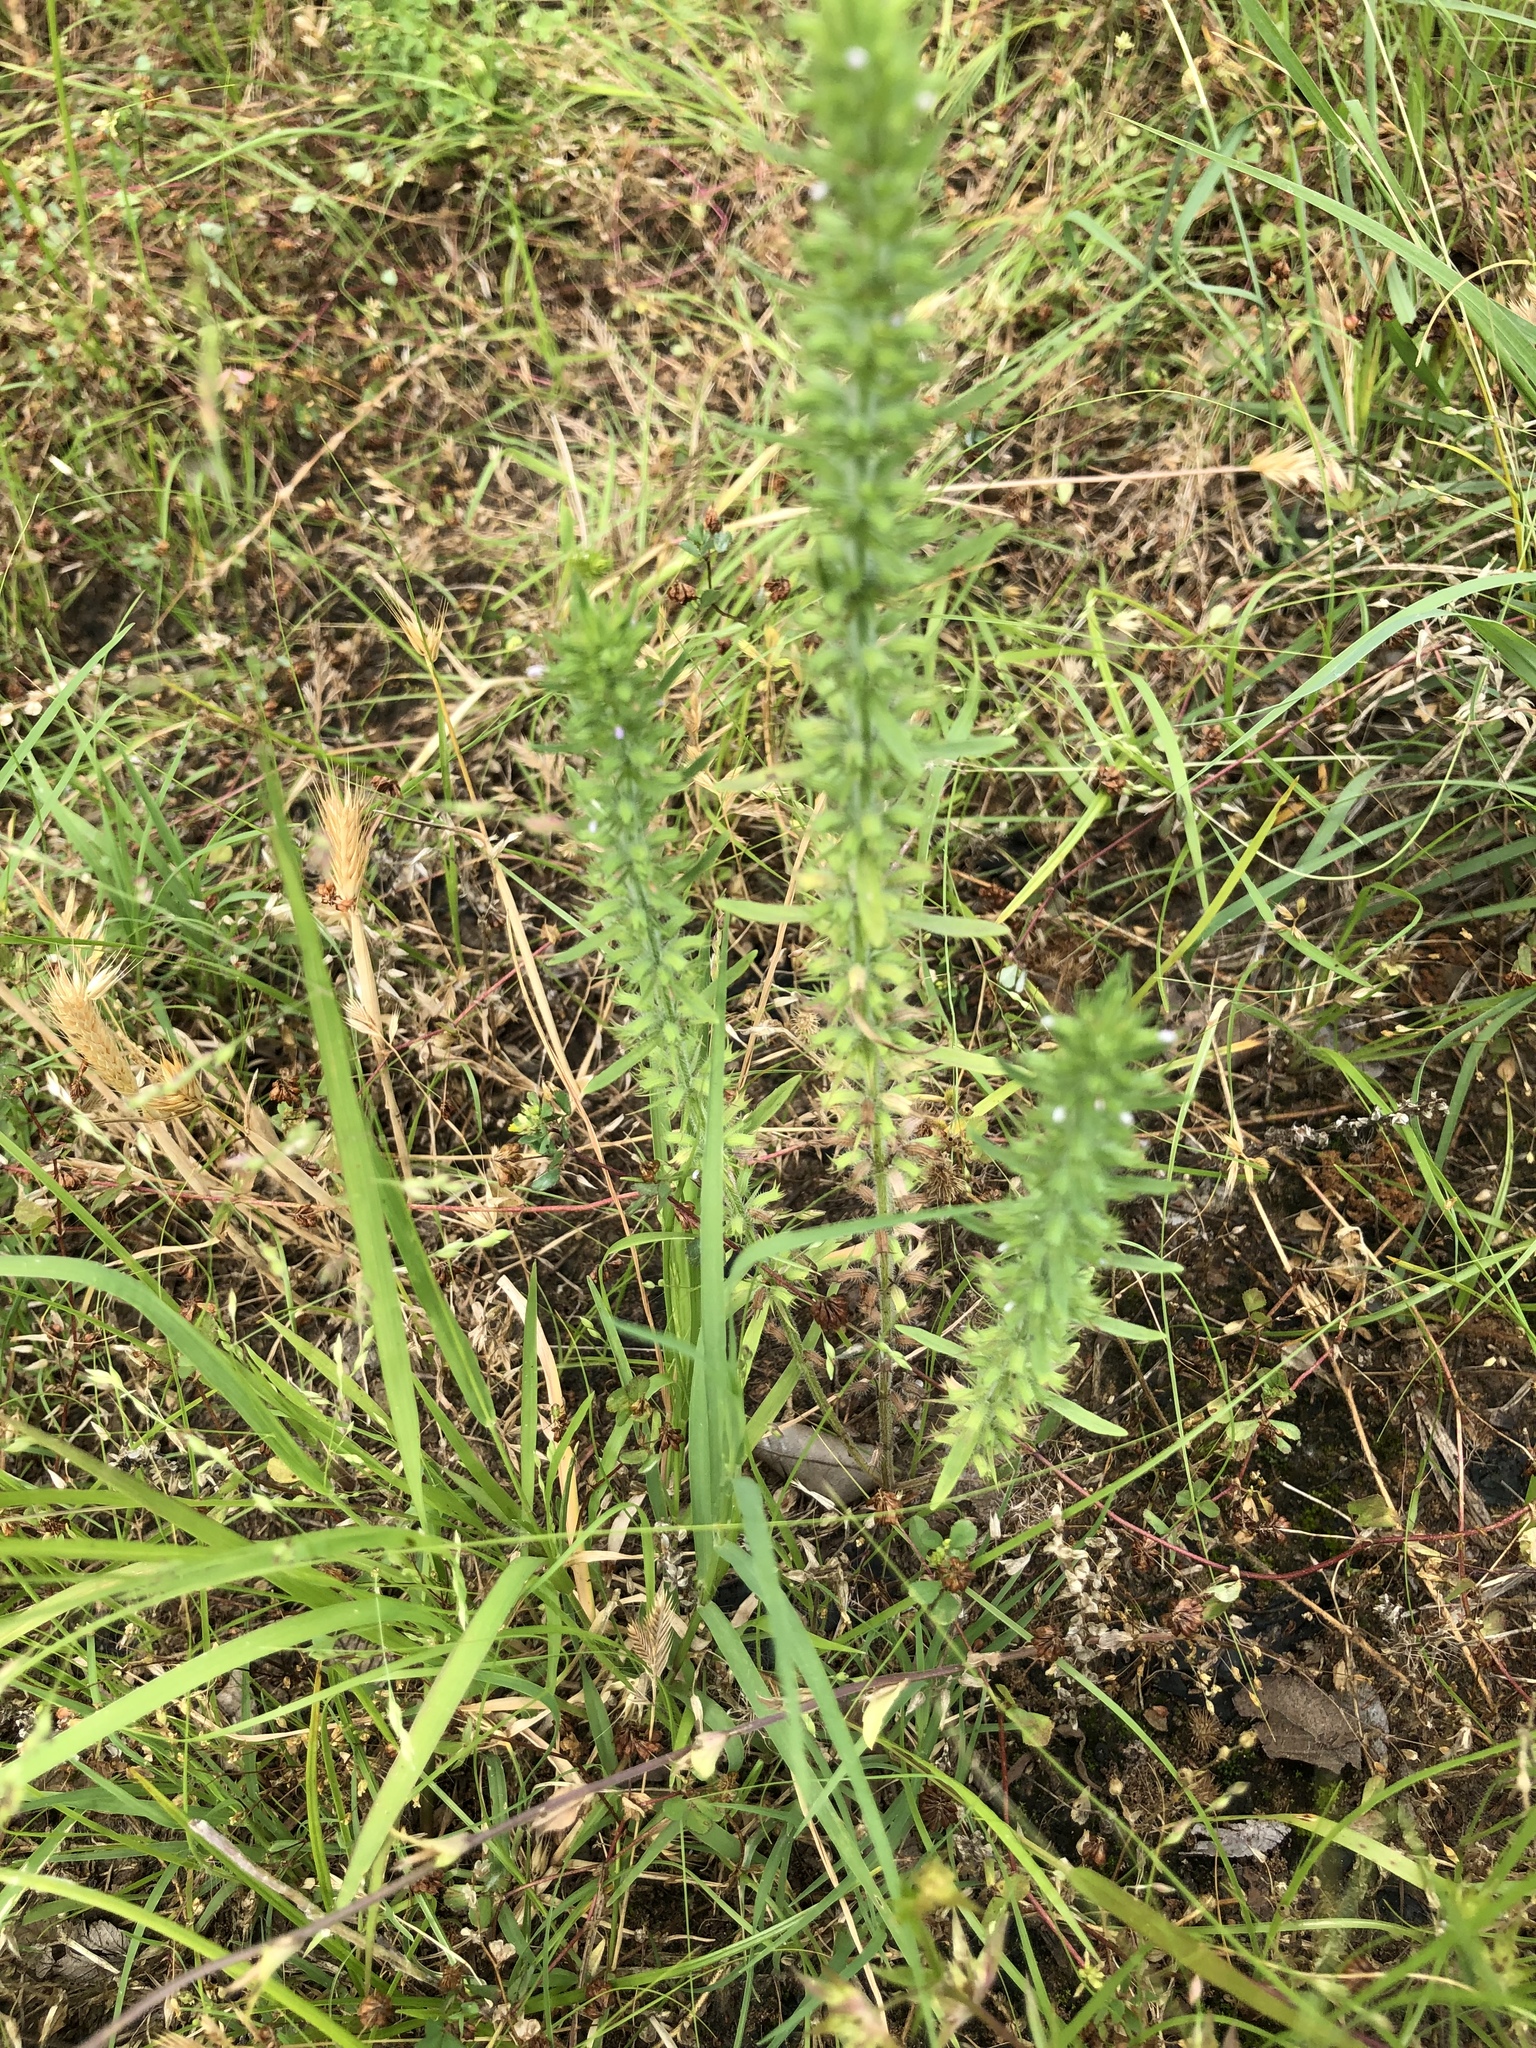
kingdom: Plantae
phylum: Tracheophyta
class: Magnoliopsida
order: Lamiales
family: Lamiaceae
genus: Hedeoma
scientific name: Hedeoma hispida
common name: Mock pennyroyal
